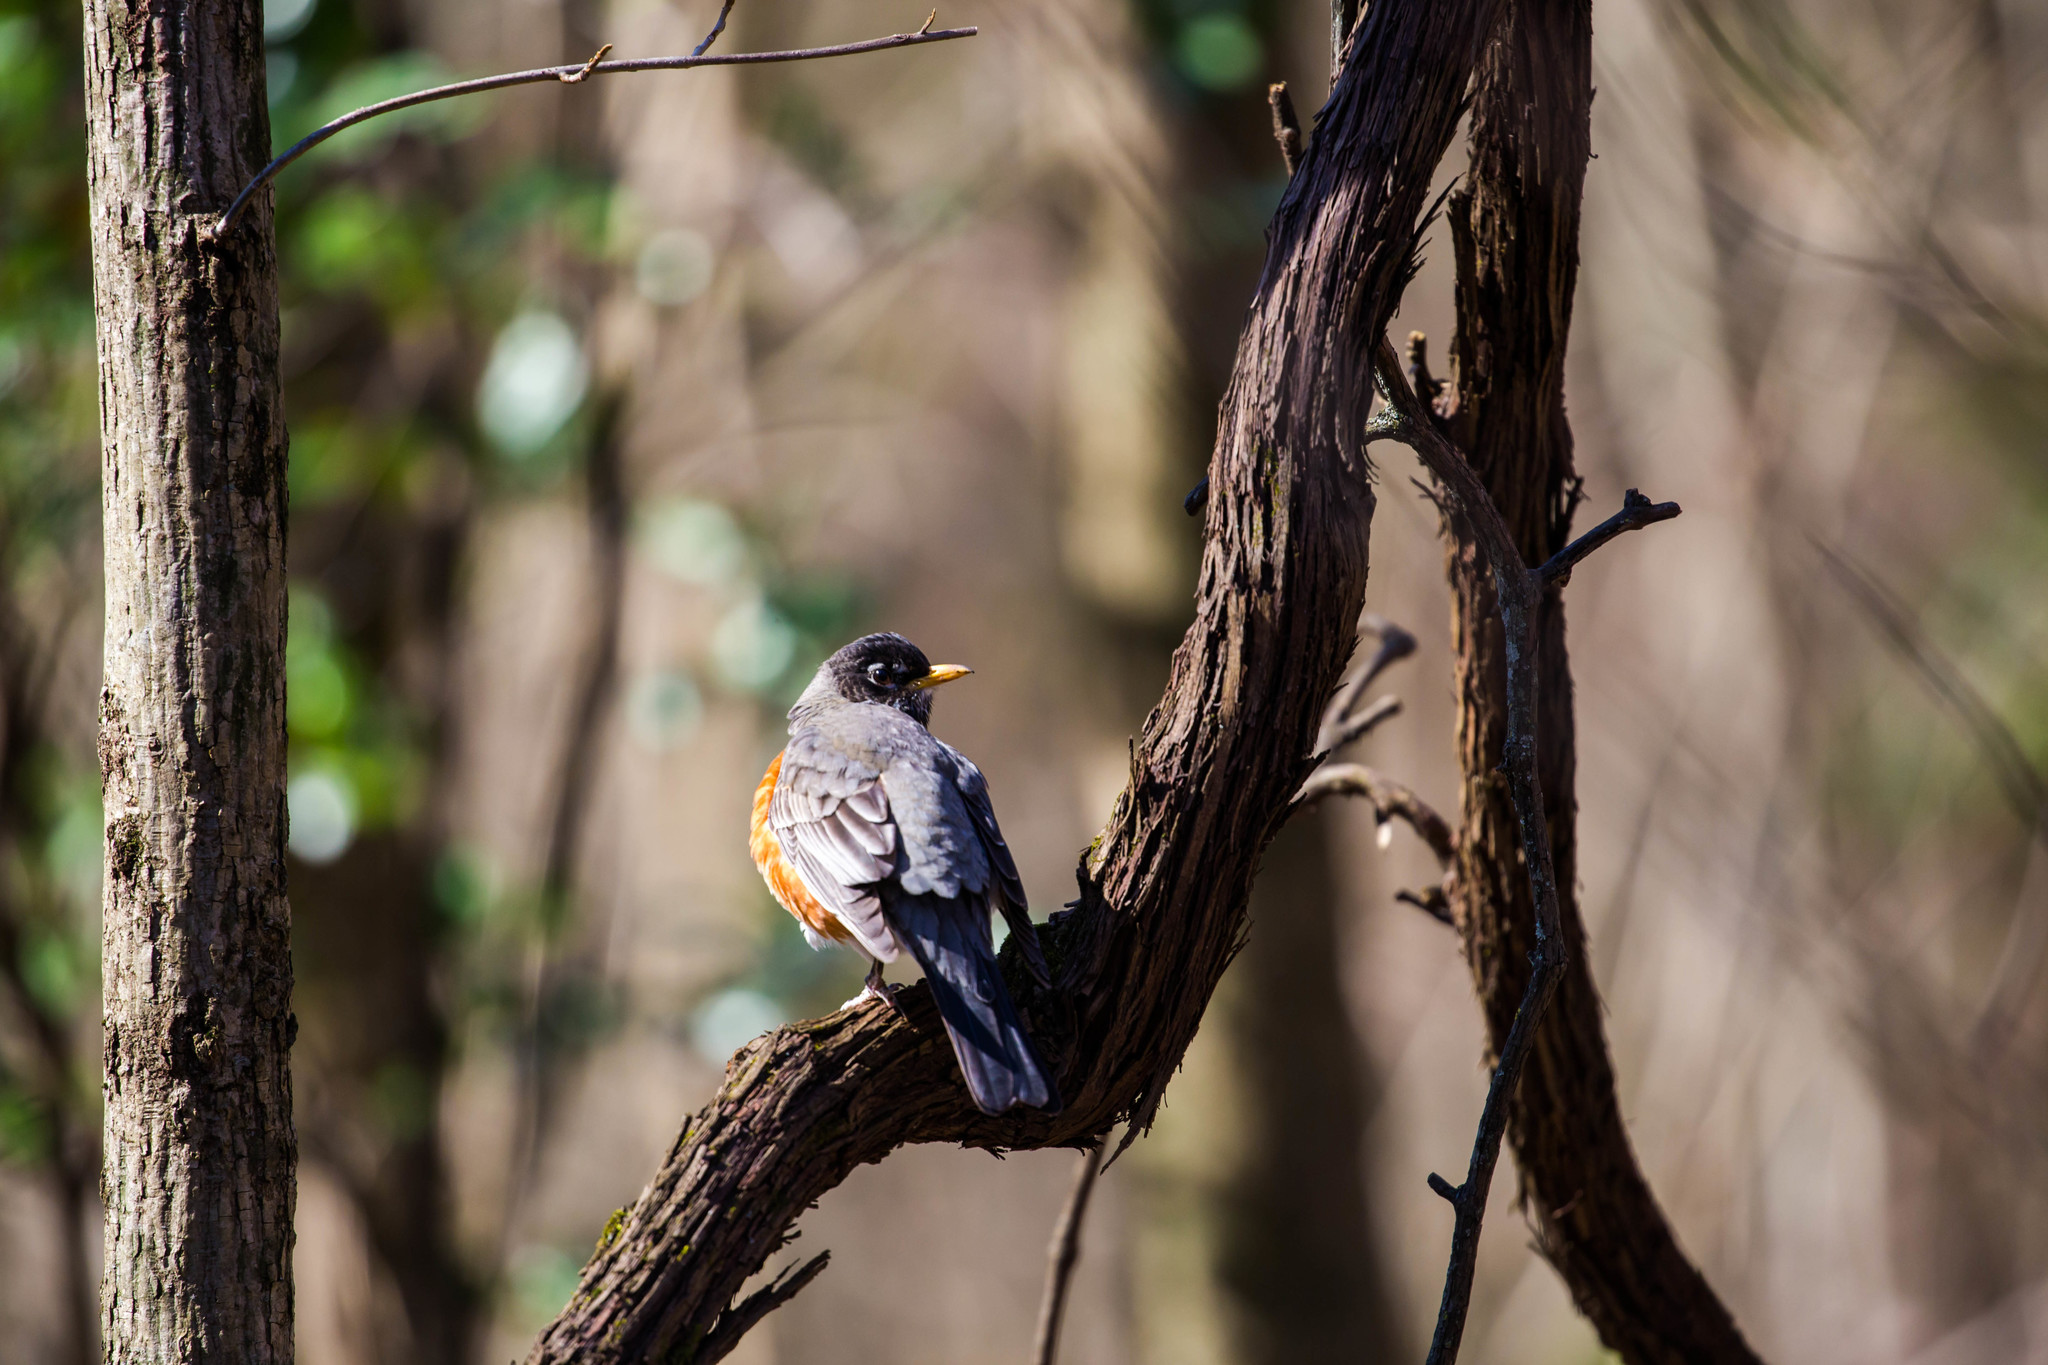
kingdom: Animalia
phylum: Chordata
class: Aves
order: Passeriformes
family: Turdidae
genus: Turdus
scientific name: Turdus migratorius
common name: American robin
